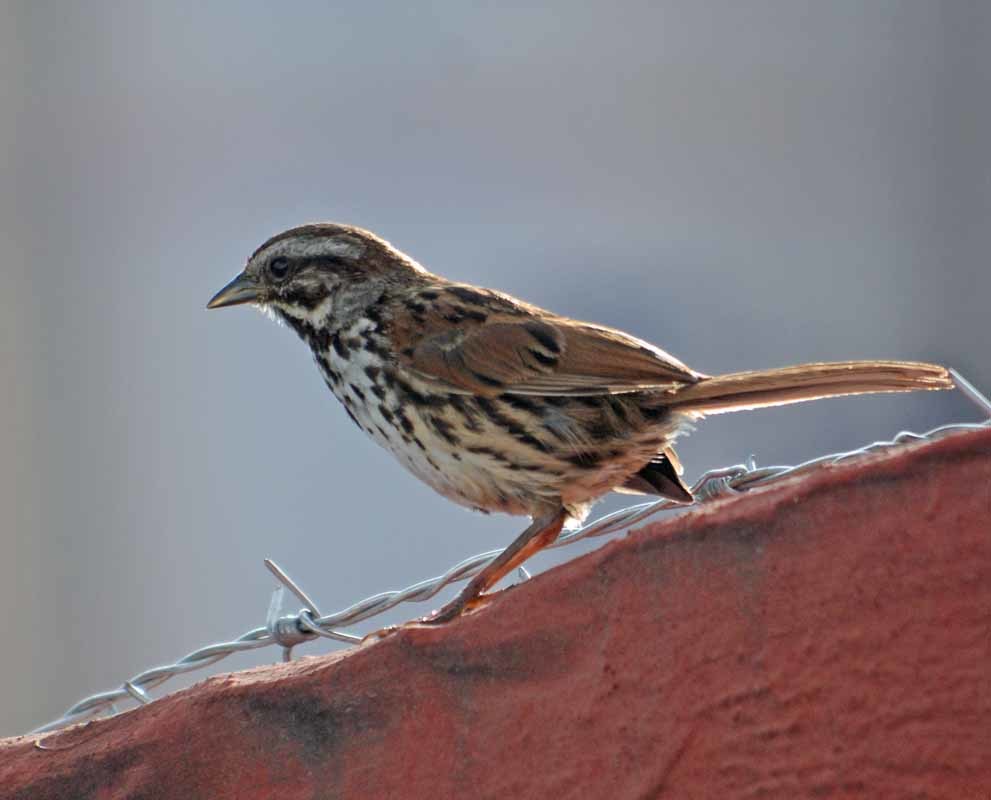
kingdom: Animalia
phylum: Chordata
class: Aves
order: Passeriformes
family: Passerellidae
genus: Melospiza
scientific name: Melospiza melodia
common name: Song sparrow
